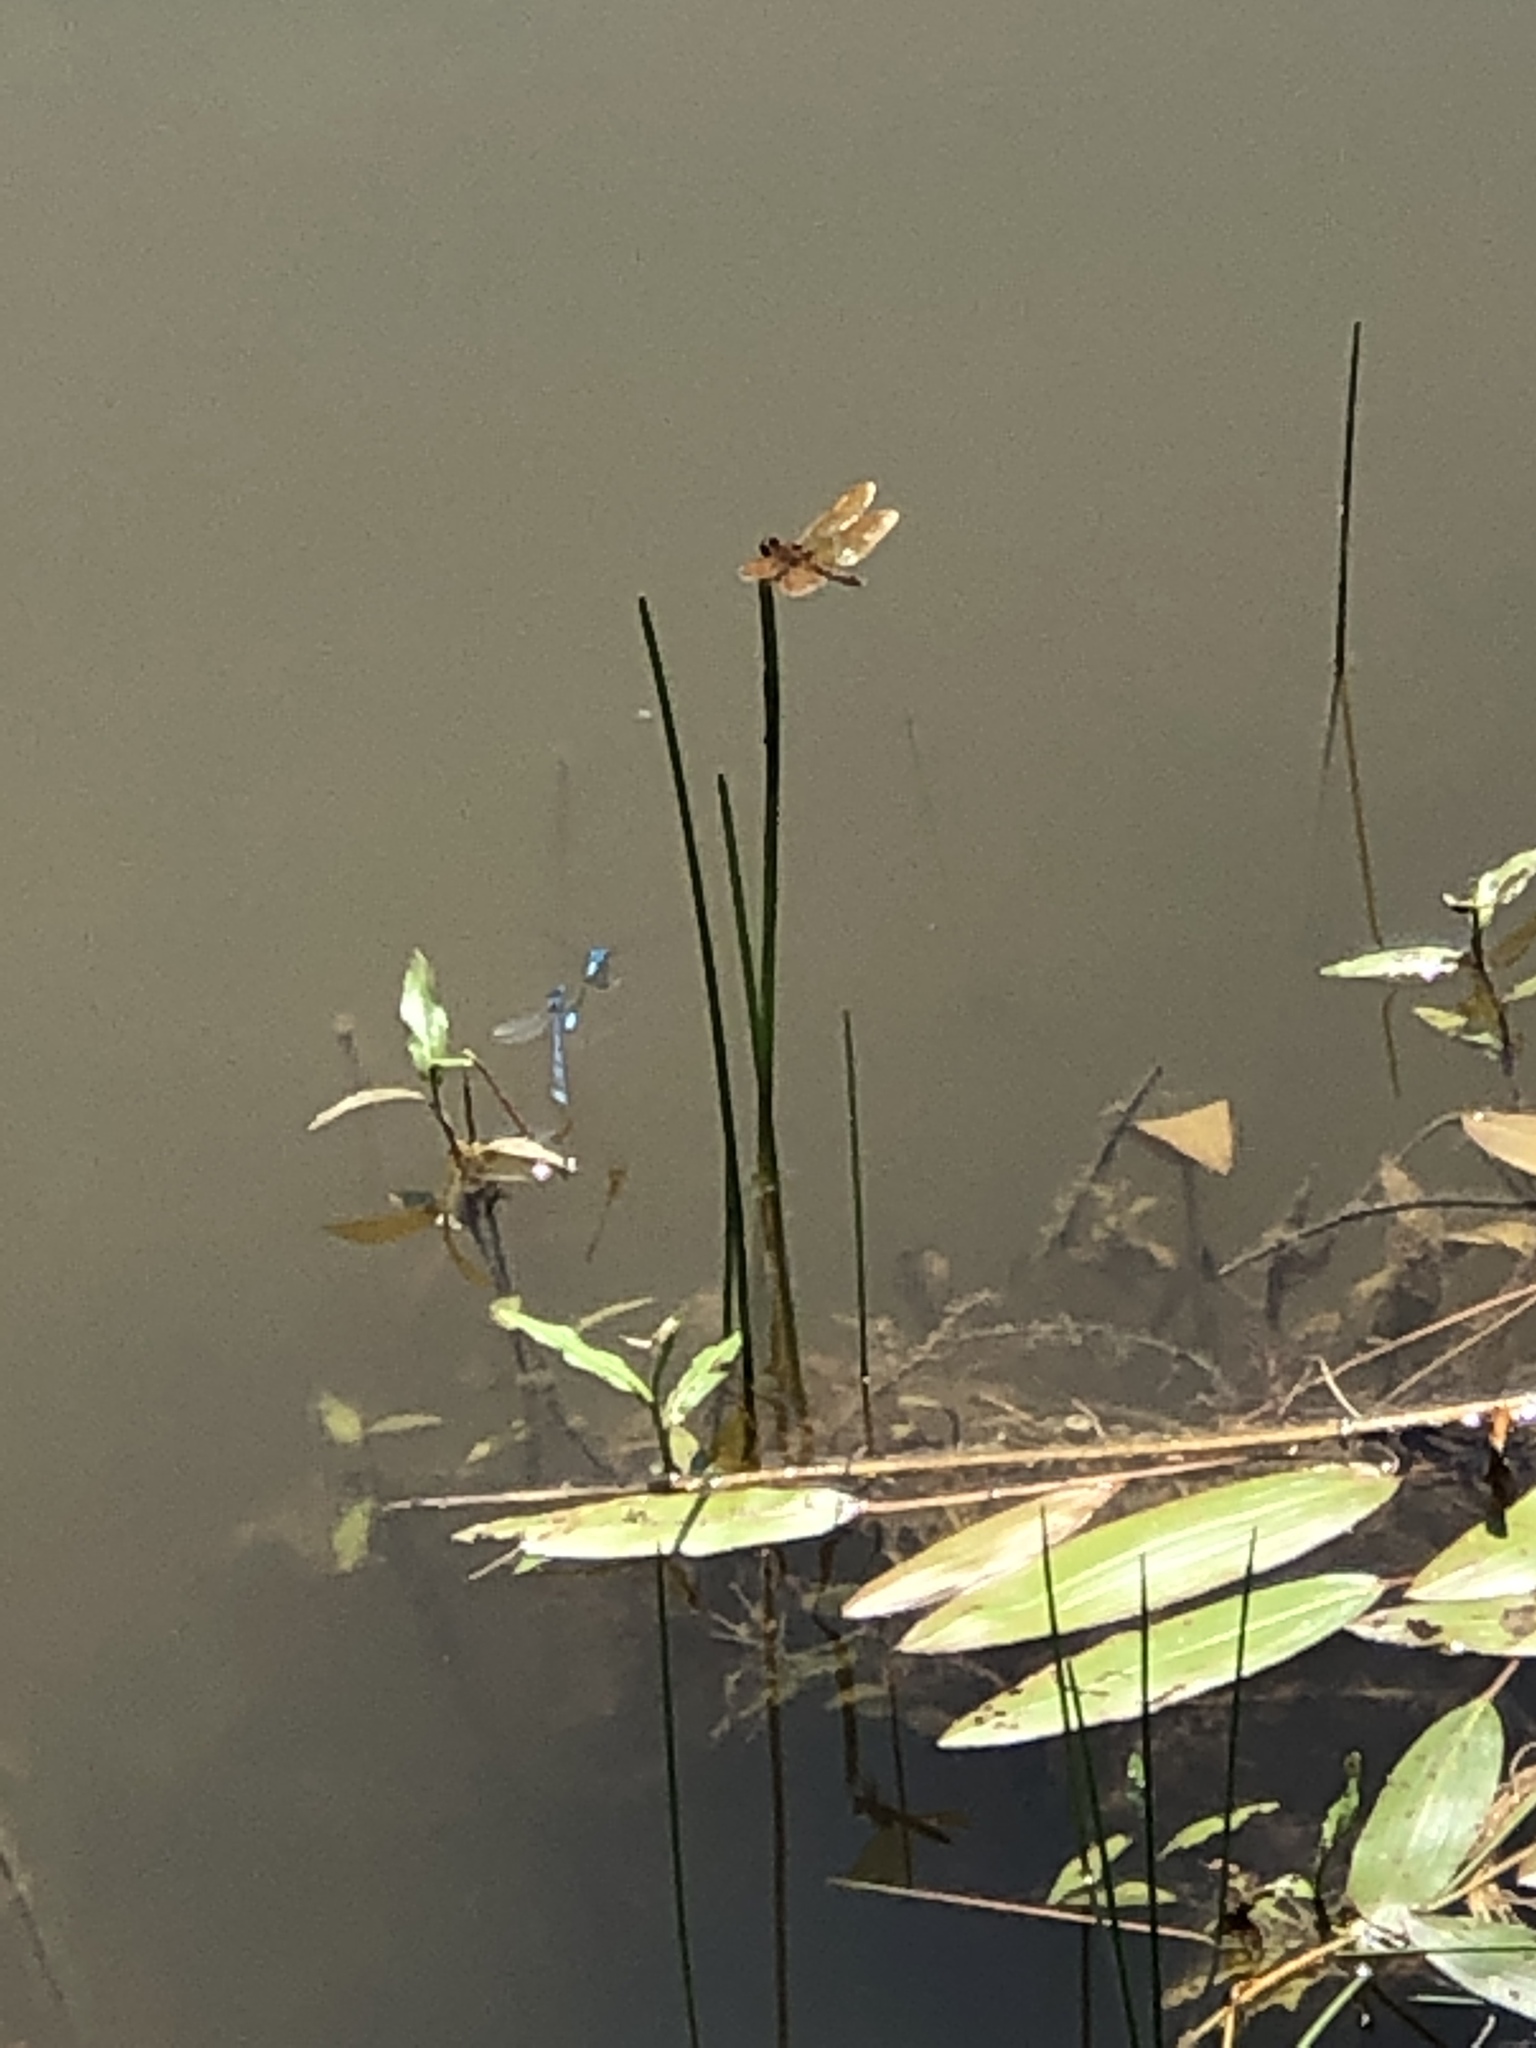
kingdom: Animalia
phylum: Arthropoda
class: Insecta
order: Odonata
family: Libellulidae
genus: Perithemis
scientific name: Perithemis tenera
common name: Eastern amberwing
